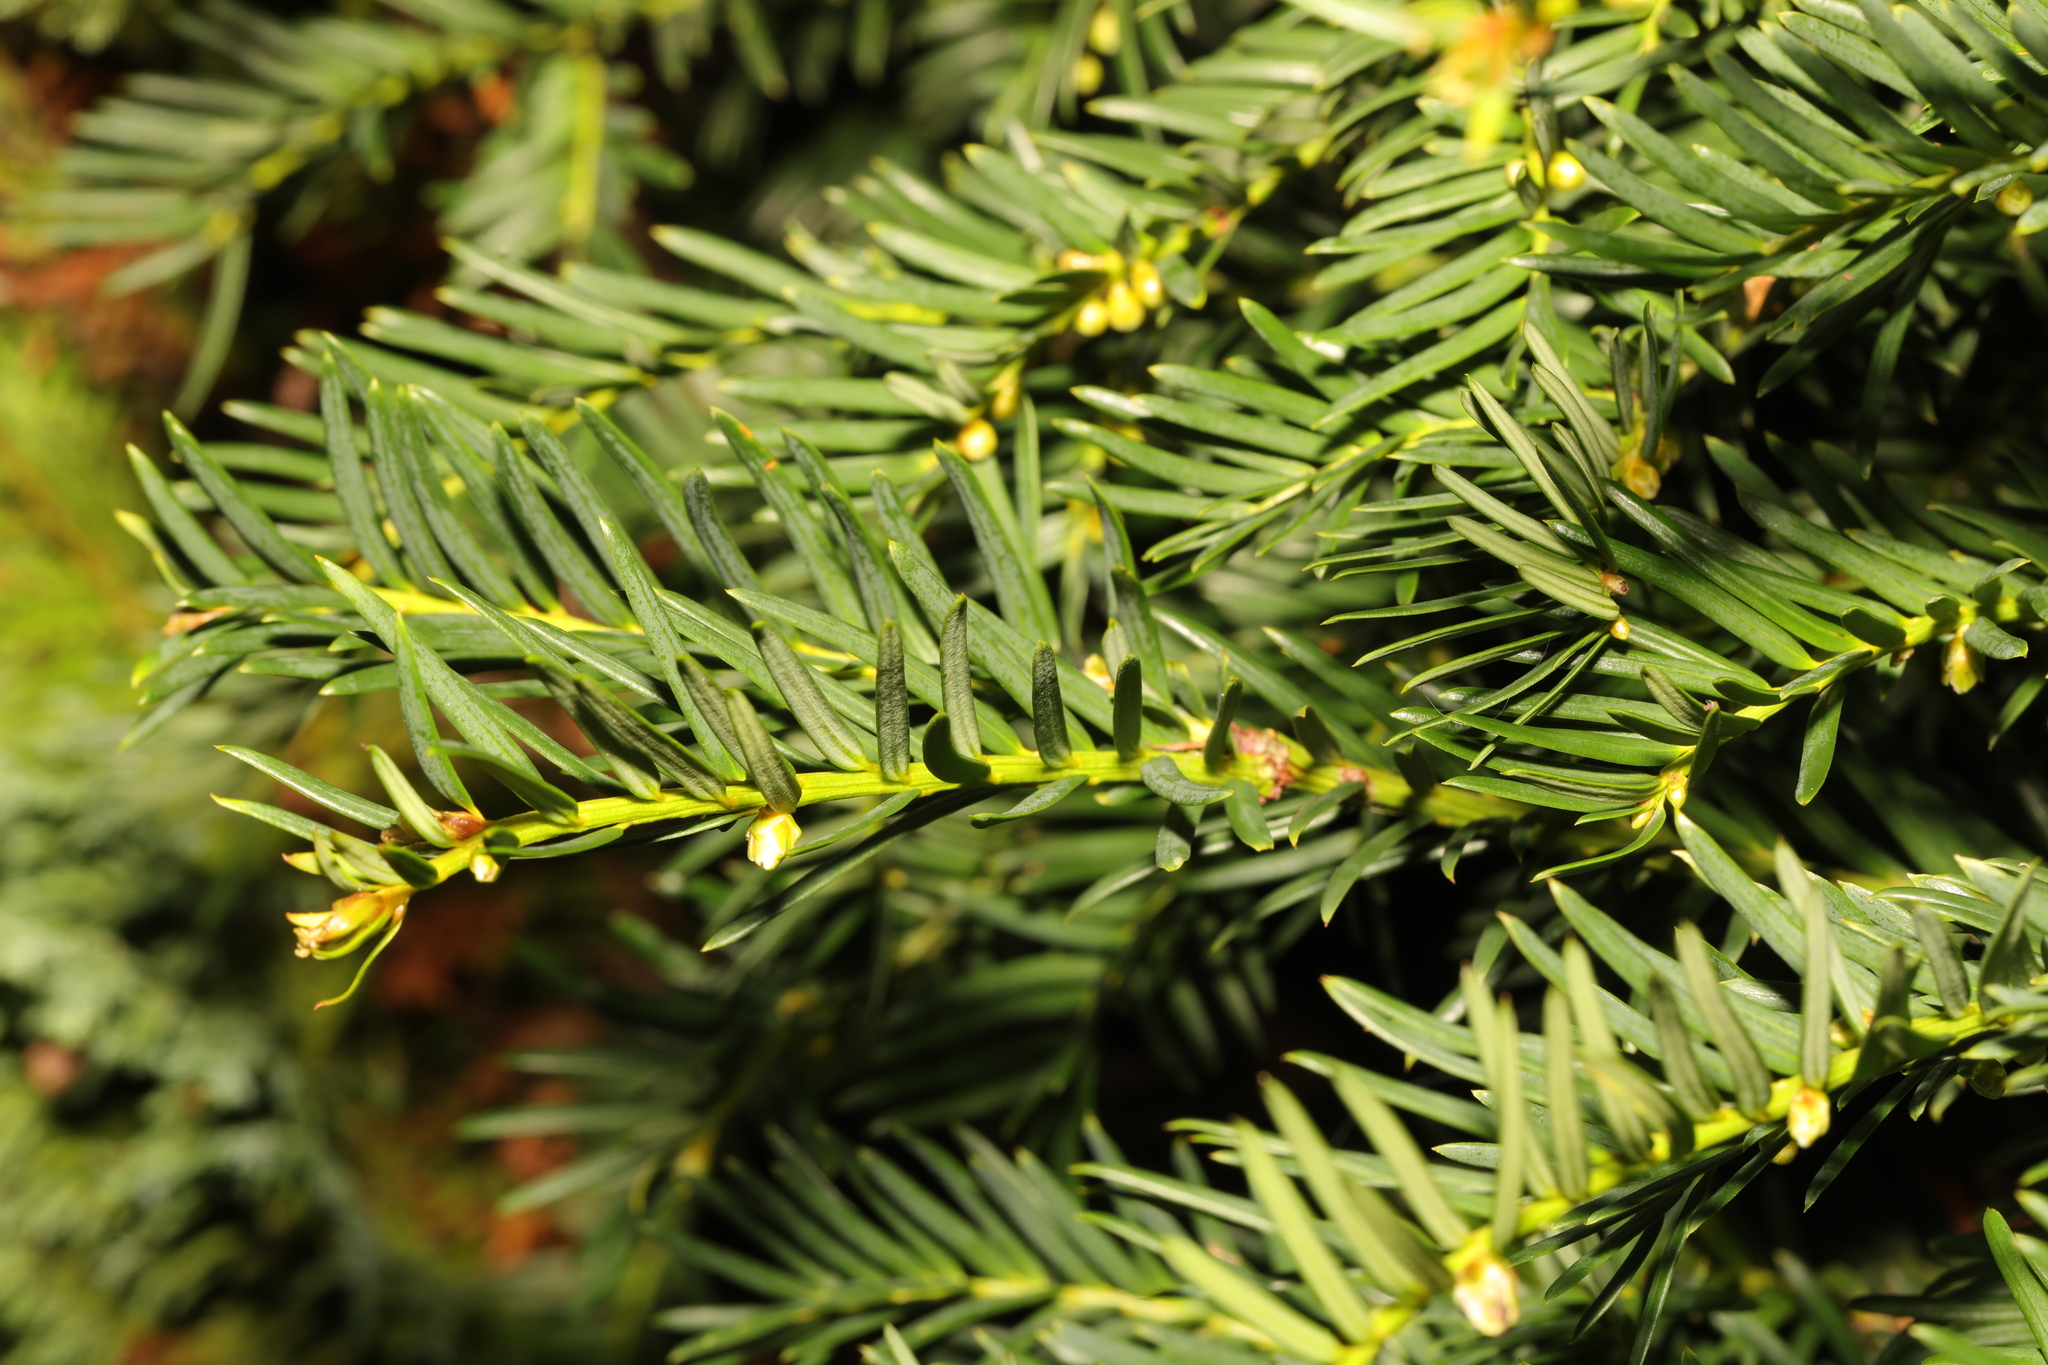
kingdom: Plantae
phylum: Tracheophyta
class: Pinopsida
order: Pinales
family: Taxaceae
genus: Taxus
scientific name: Taxus baccata
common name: Yew
